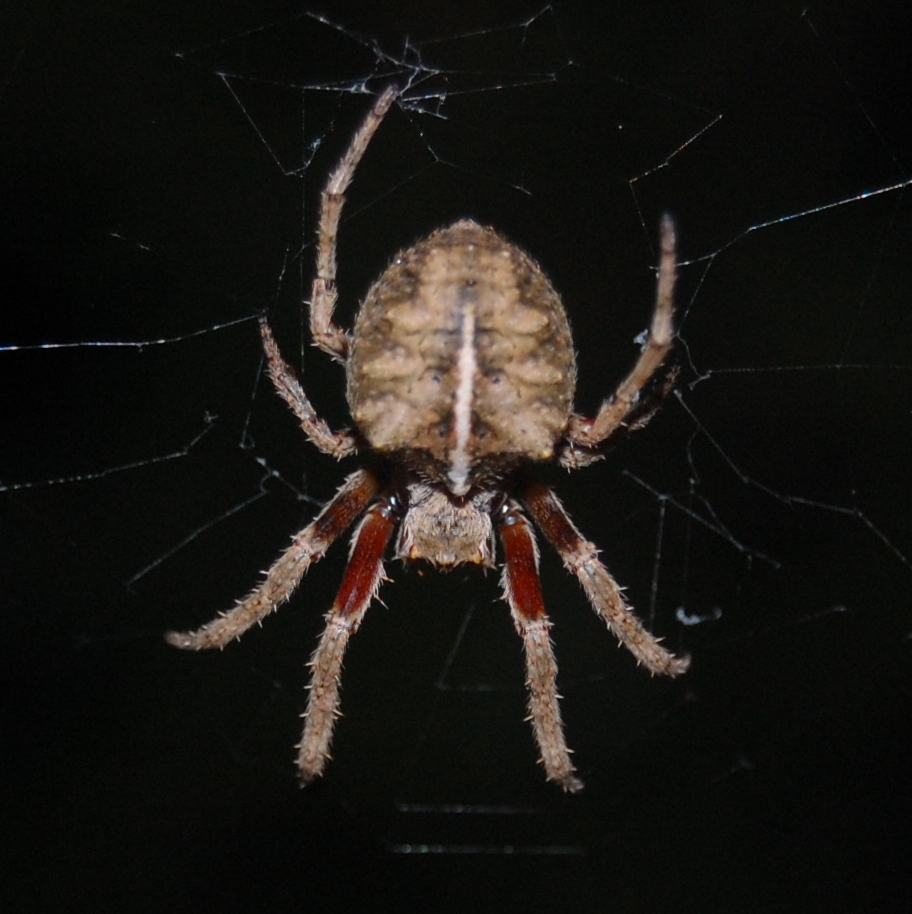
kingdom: Animalia
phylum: Arthropoda
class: Arachnida
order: Araneae
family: Araneidae
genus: Parawixia
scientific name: Parawixia audax
